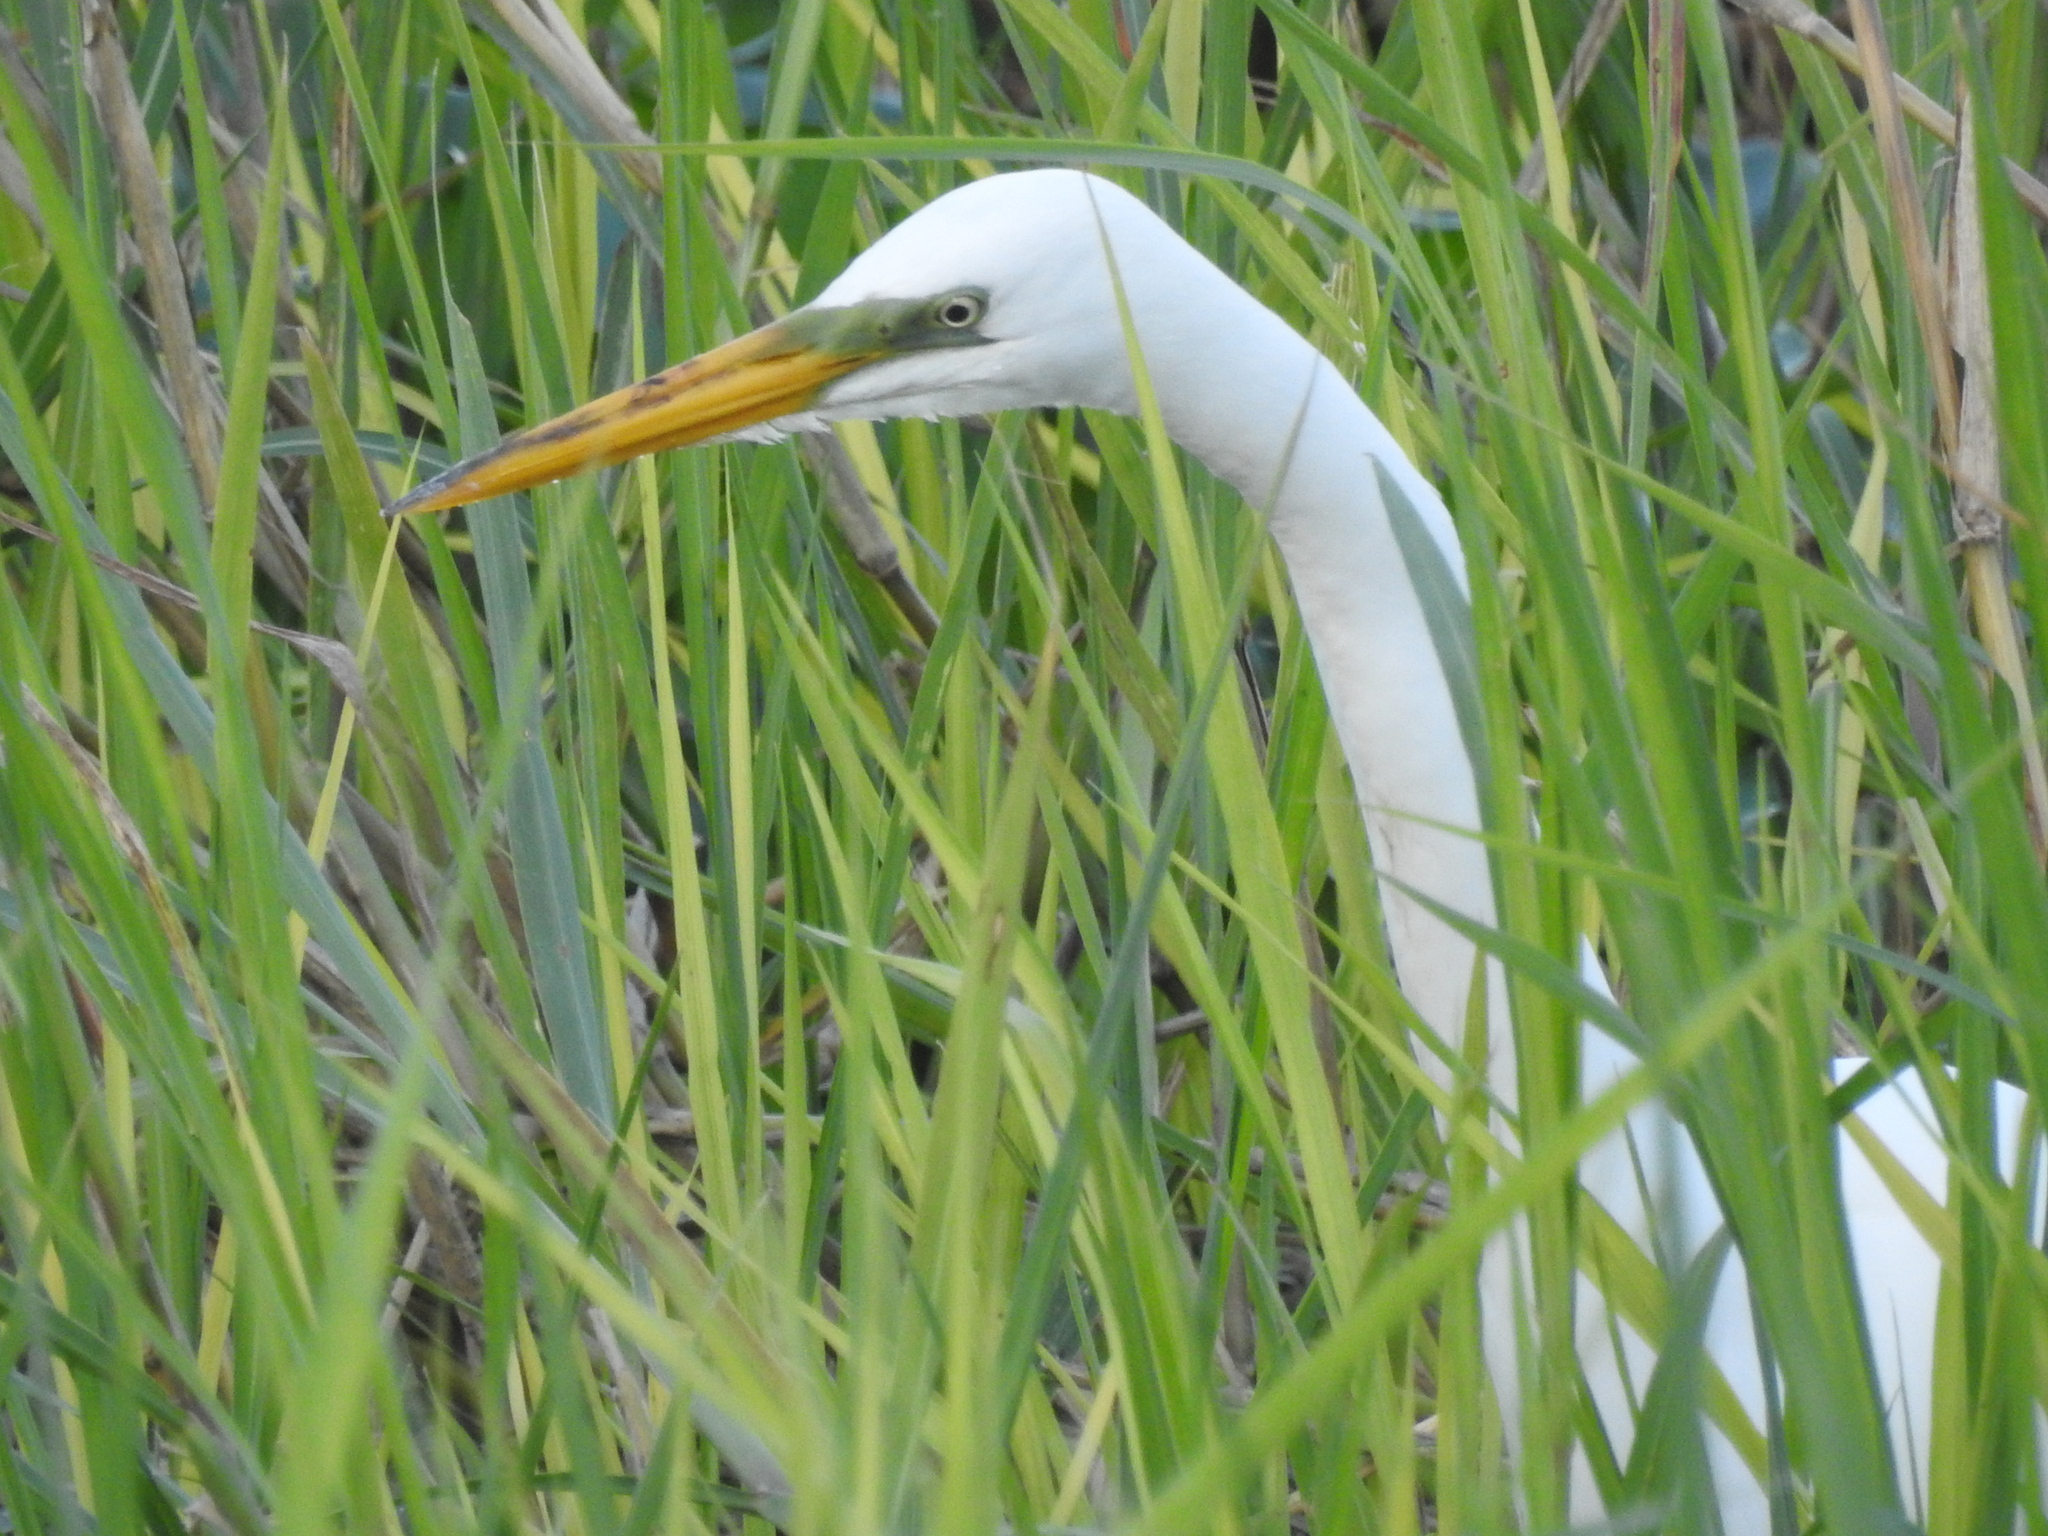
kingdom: Animalia
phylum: Chordata
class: Aves
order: Pelecaniformes
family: Ardeidae
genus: Ardea
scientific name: Ardea alba
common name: Great egret
